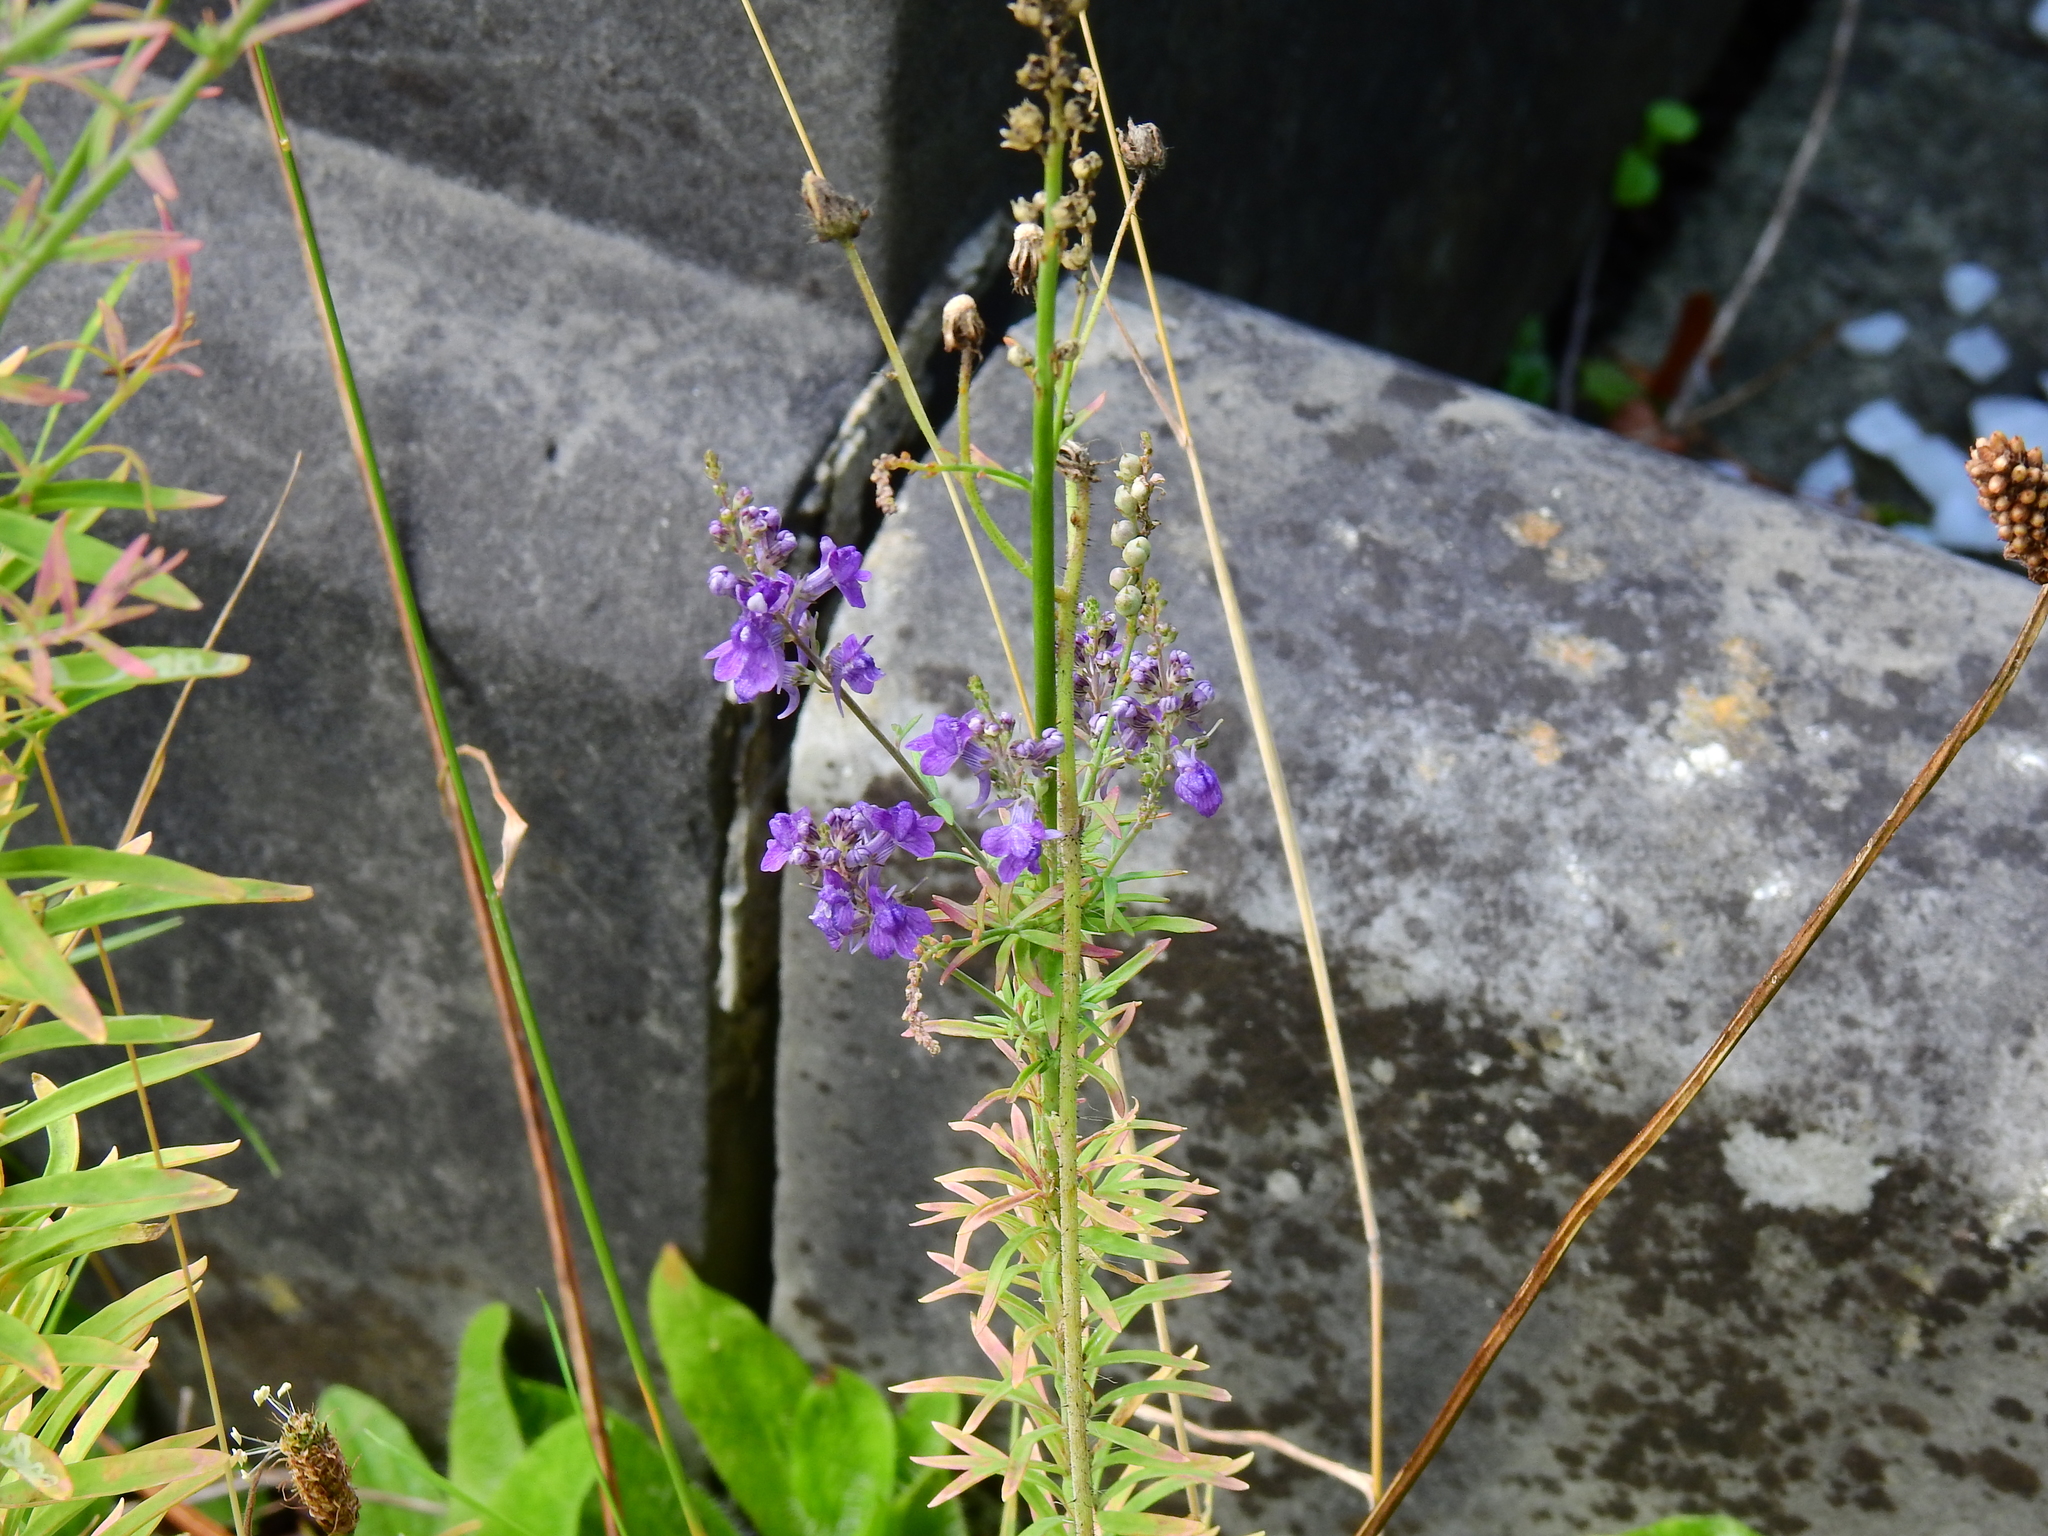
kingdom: Plantae
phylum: Tracheophyta
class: Magnoliopsida
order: Lamiales
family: Plantaginaceae
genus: Linaria
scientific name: Linaria purpurea
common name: Purple toadflax
